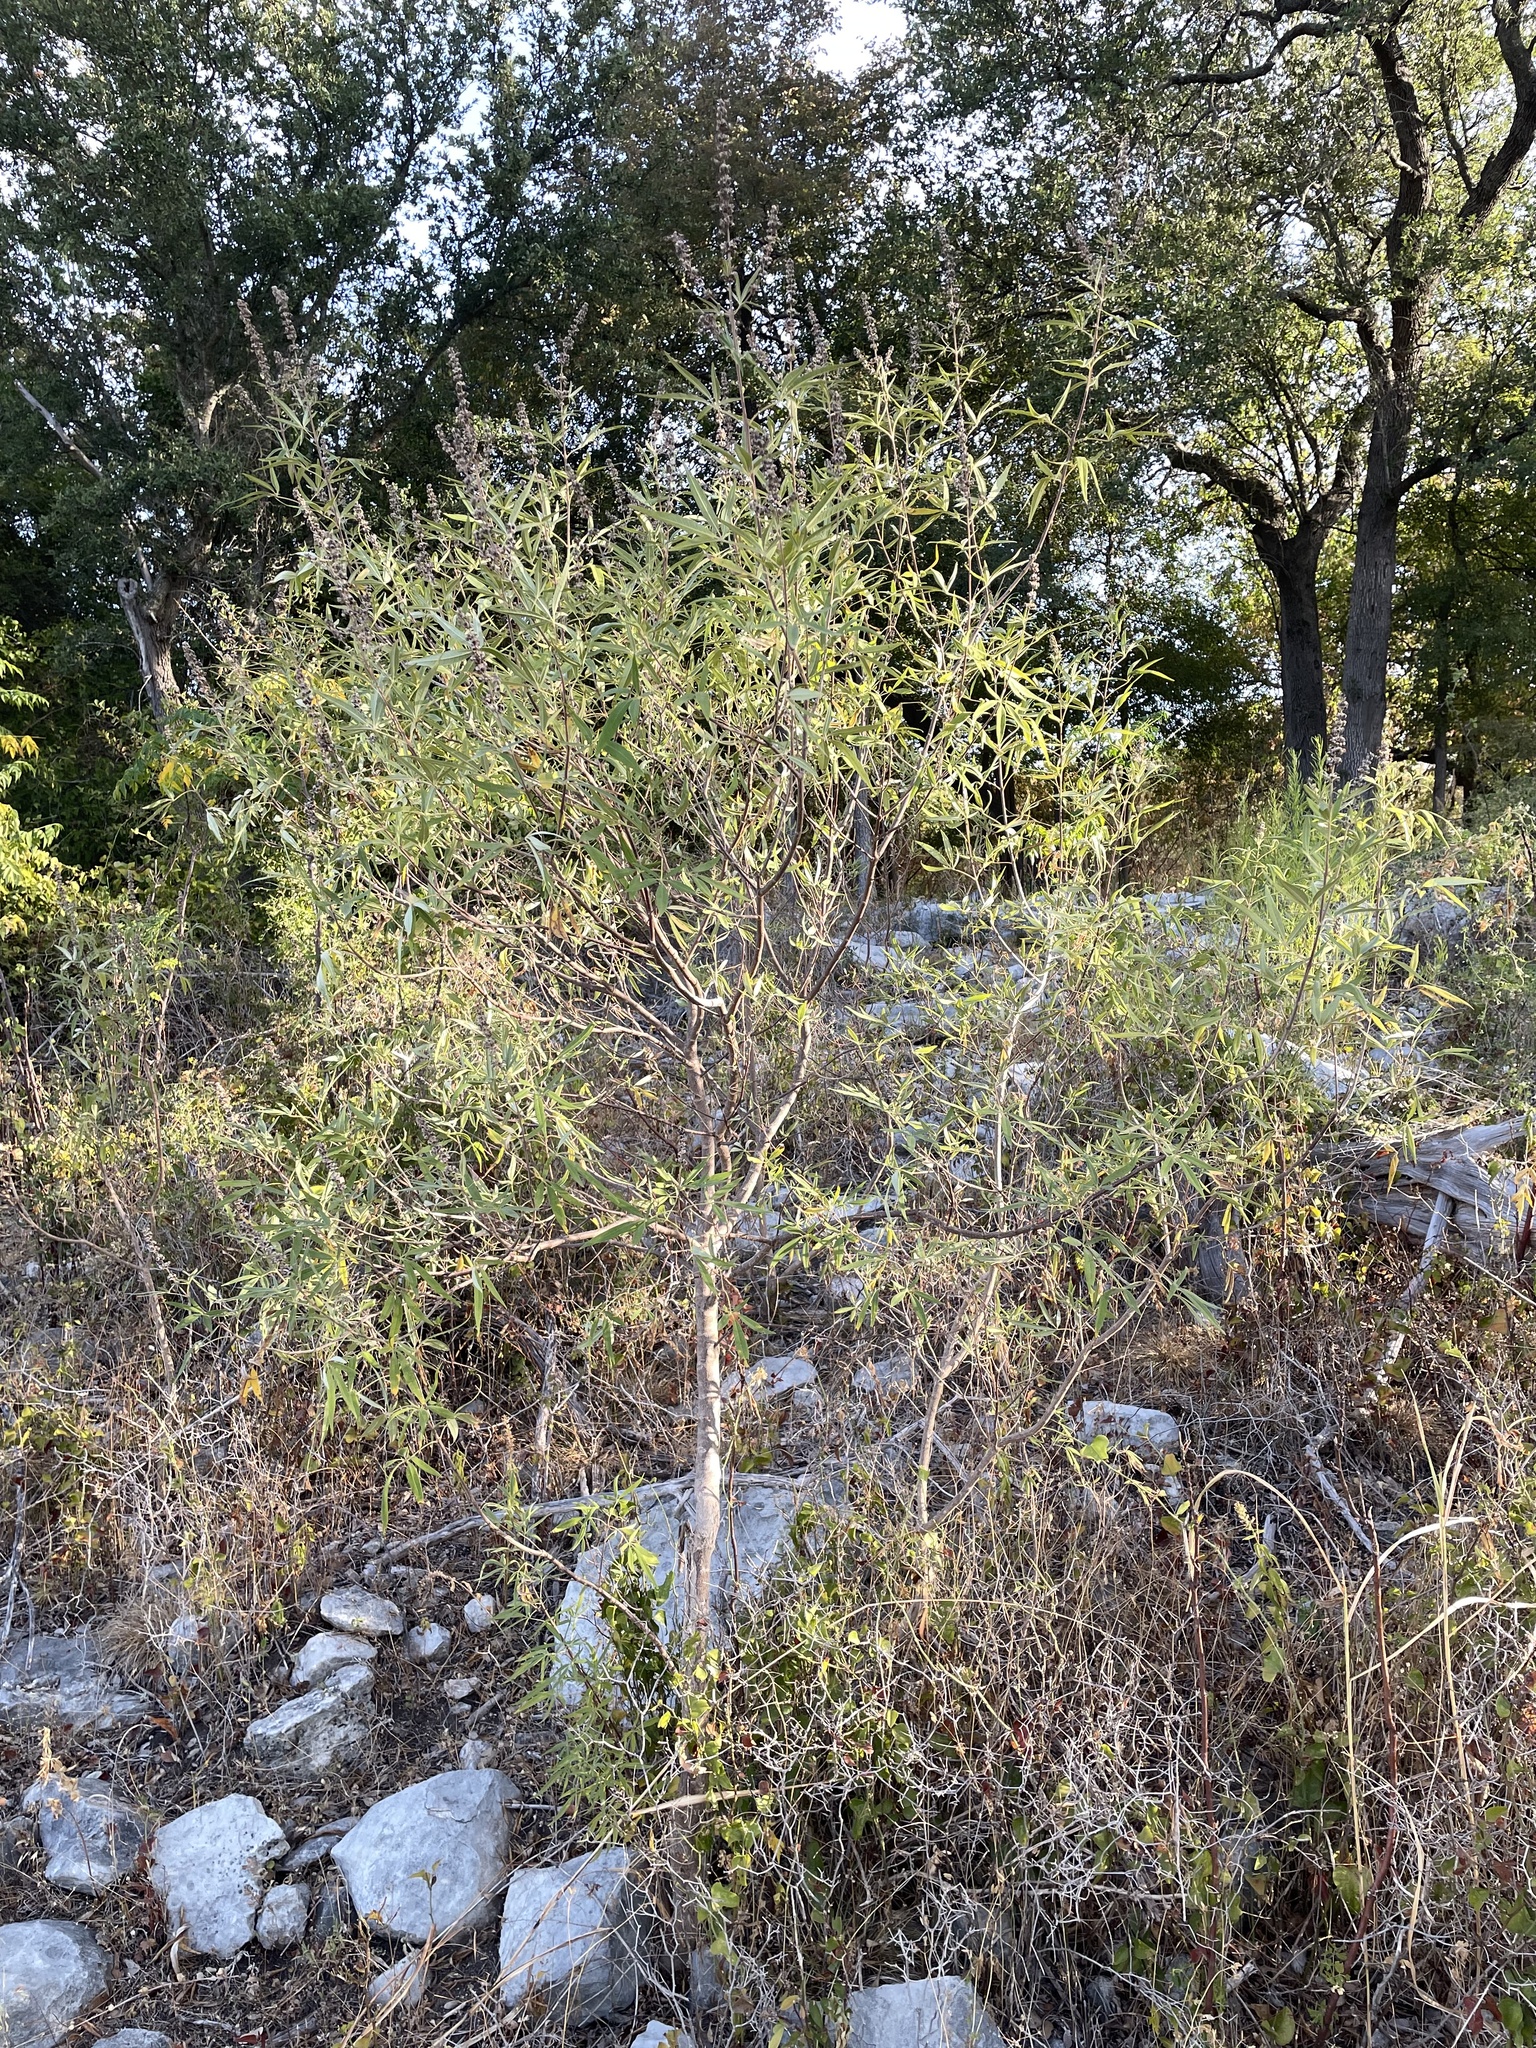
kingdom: Plantae
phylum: Tracheophyta
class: Magnoliopsida
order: Lamiales
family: Lamiaceae
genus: Vitex
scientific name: Vitex agnus-castus
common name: Chasteberry
